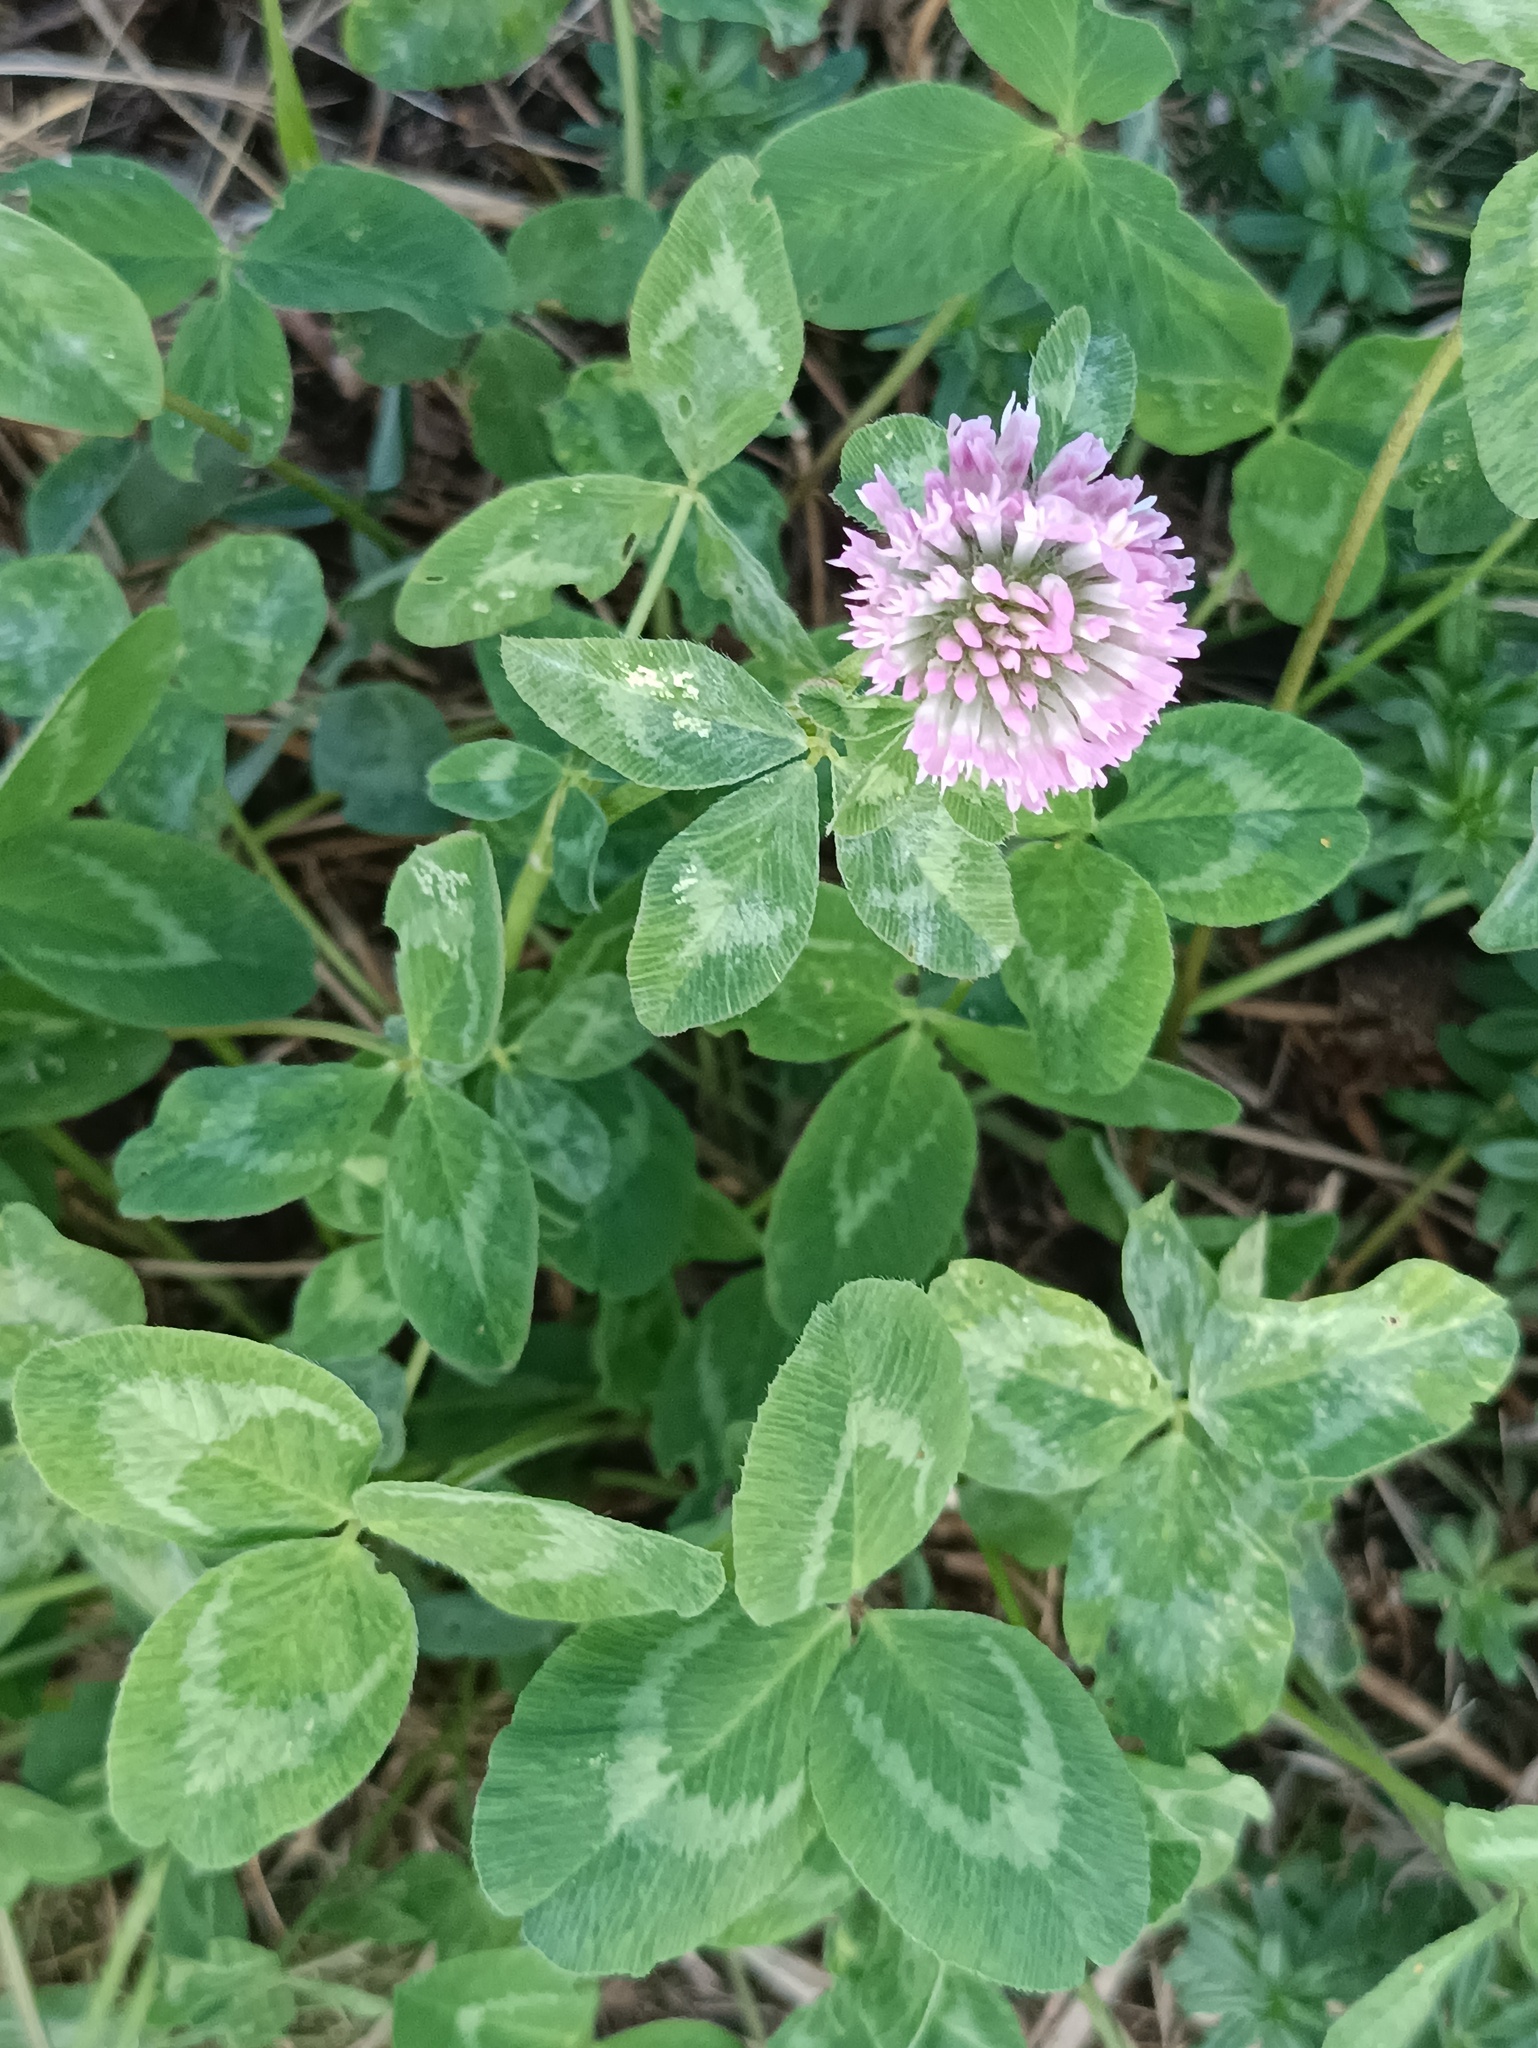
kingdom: Plantae
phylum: Tracheophyta
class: Magnoliopsida
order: Fabales
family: Fabaceae
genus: Trifolium
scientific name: Trifolium pratense
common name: Red clover
